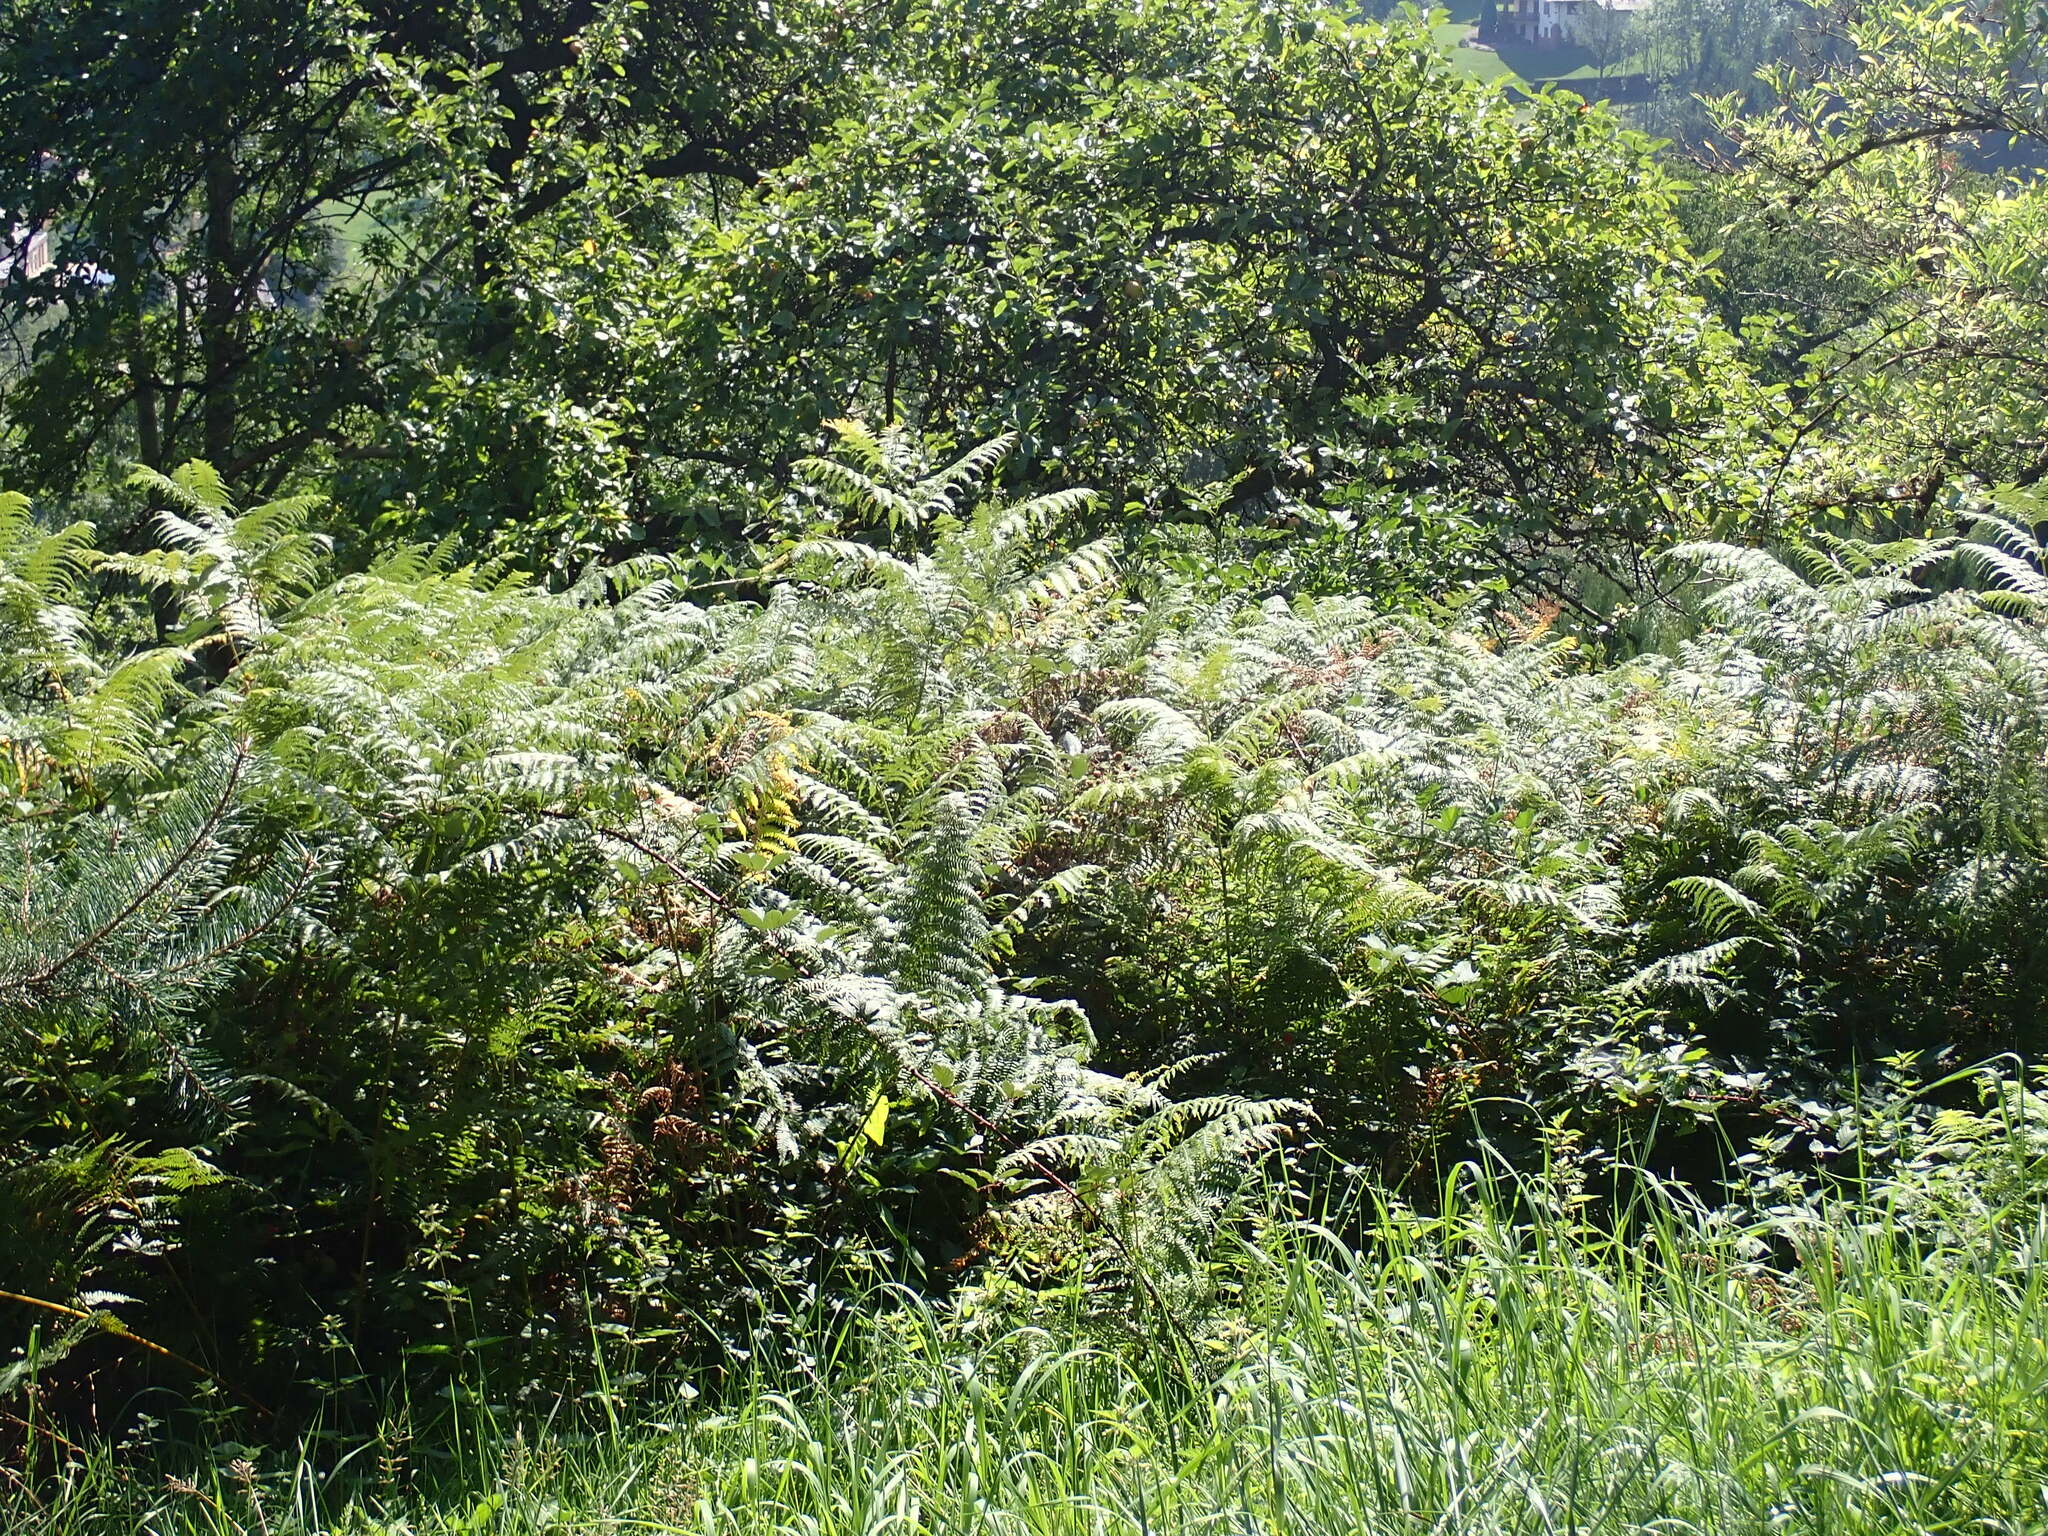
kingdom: Plantae
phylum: Tracheophyta
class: Polypodiopsida
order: Polypodiales
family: Dennstaedtiaceae
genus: Pteridium
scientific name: Pteridium aquilinum
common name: Bracken
